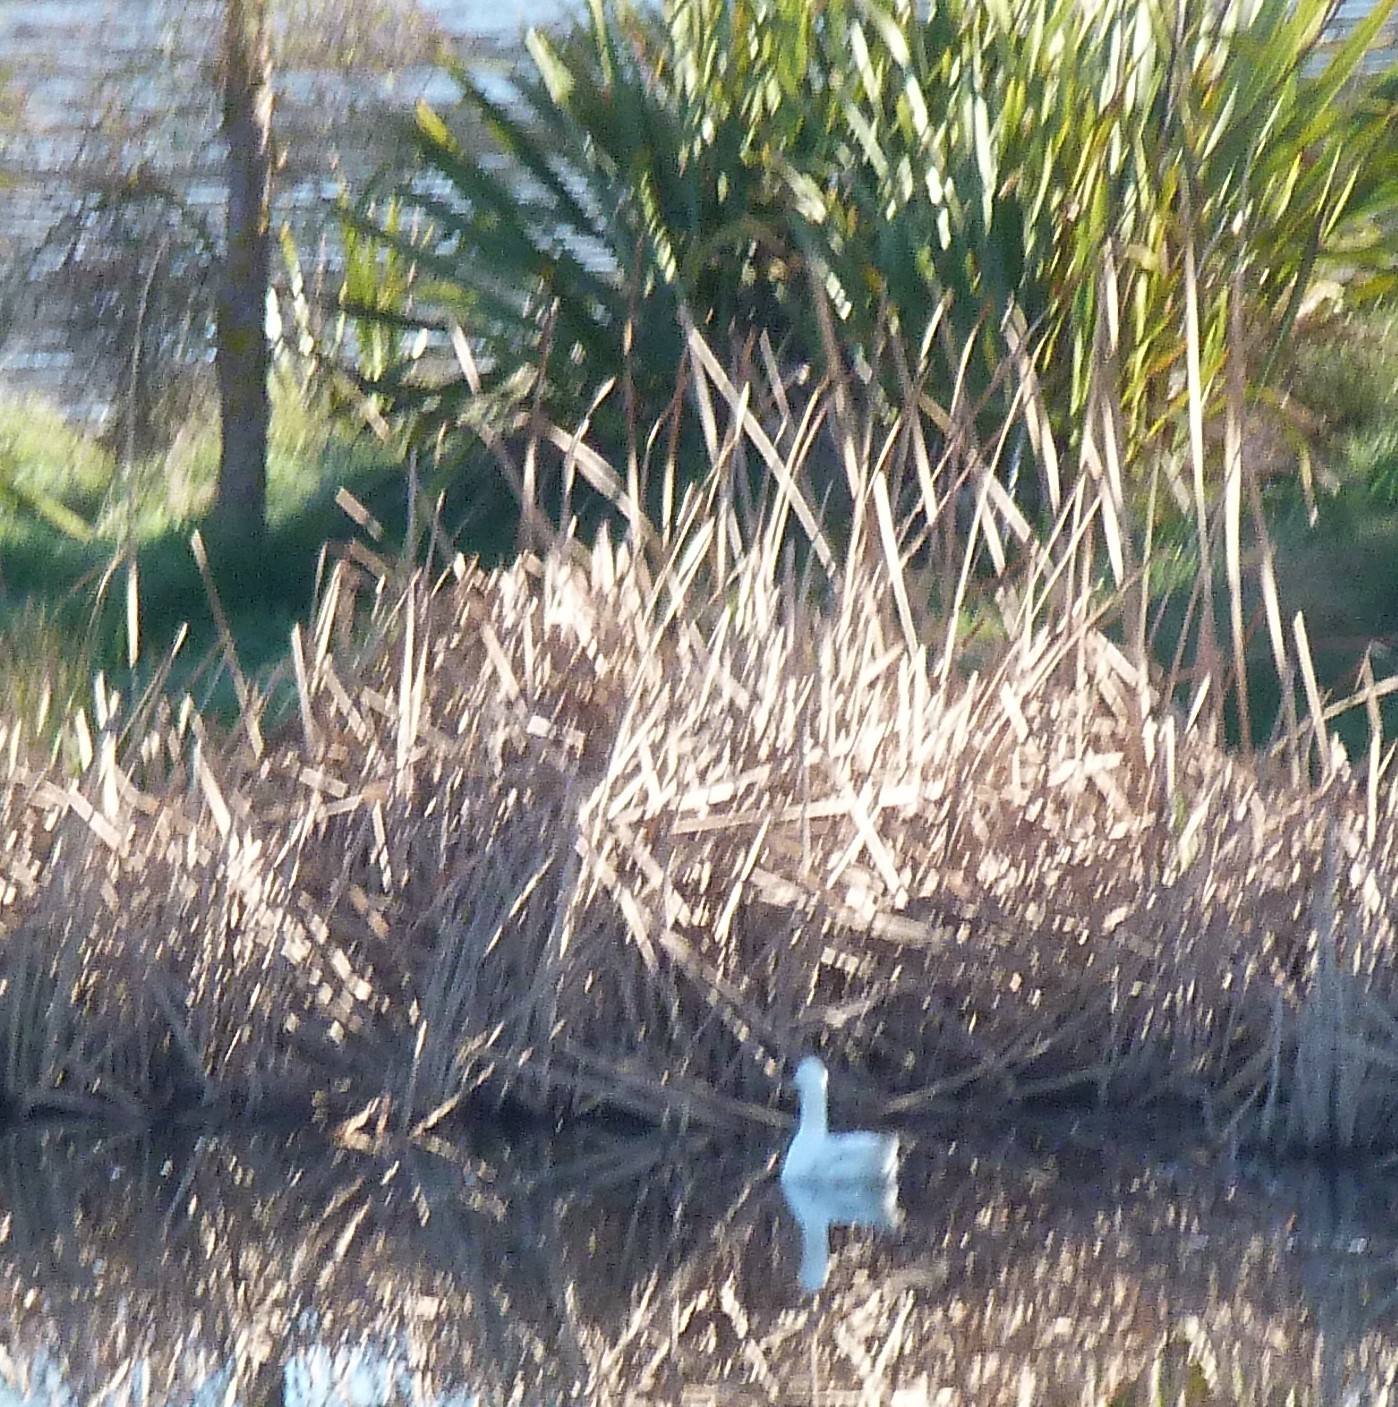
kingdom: Animalia
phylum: Chordata
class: Aves
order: Anseriformes
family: Anatidae
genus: Anas
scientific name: Anas platyrhynchos
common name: Mallard
